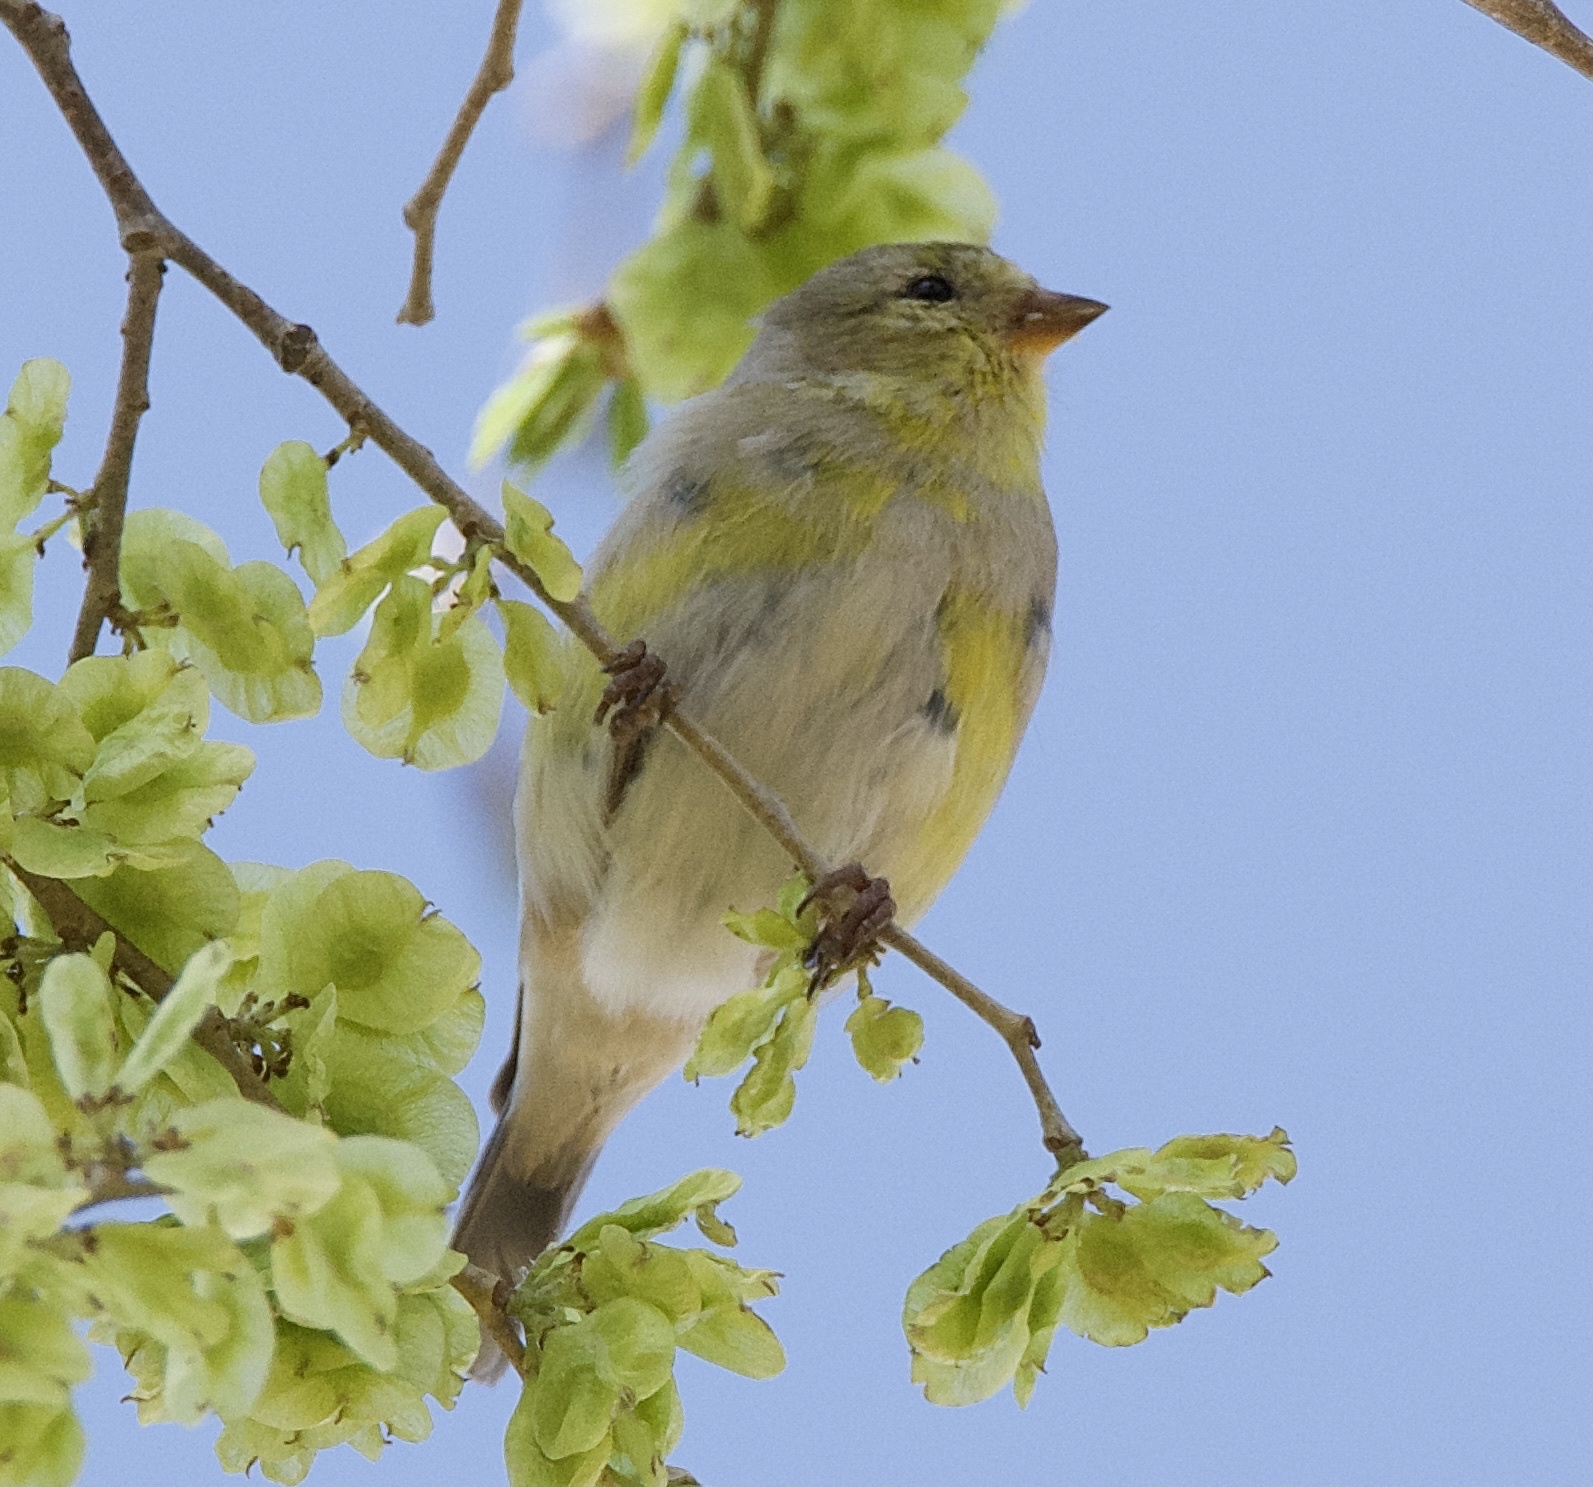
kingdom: Animalia
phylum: Chordata
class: Aves
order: Passeriformes
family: Fringillidae
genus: Spinus
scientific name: Spinus tristis
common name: American goldfinch
